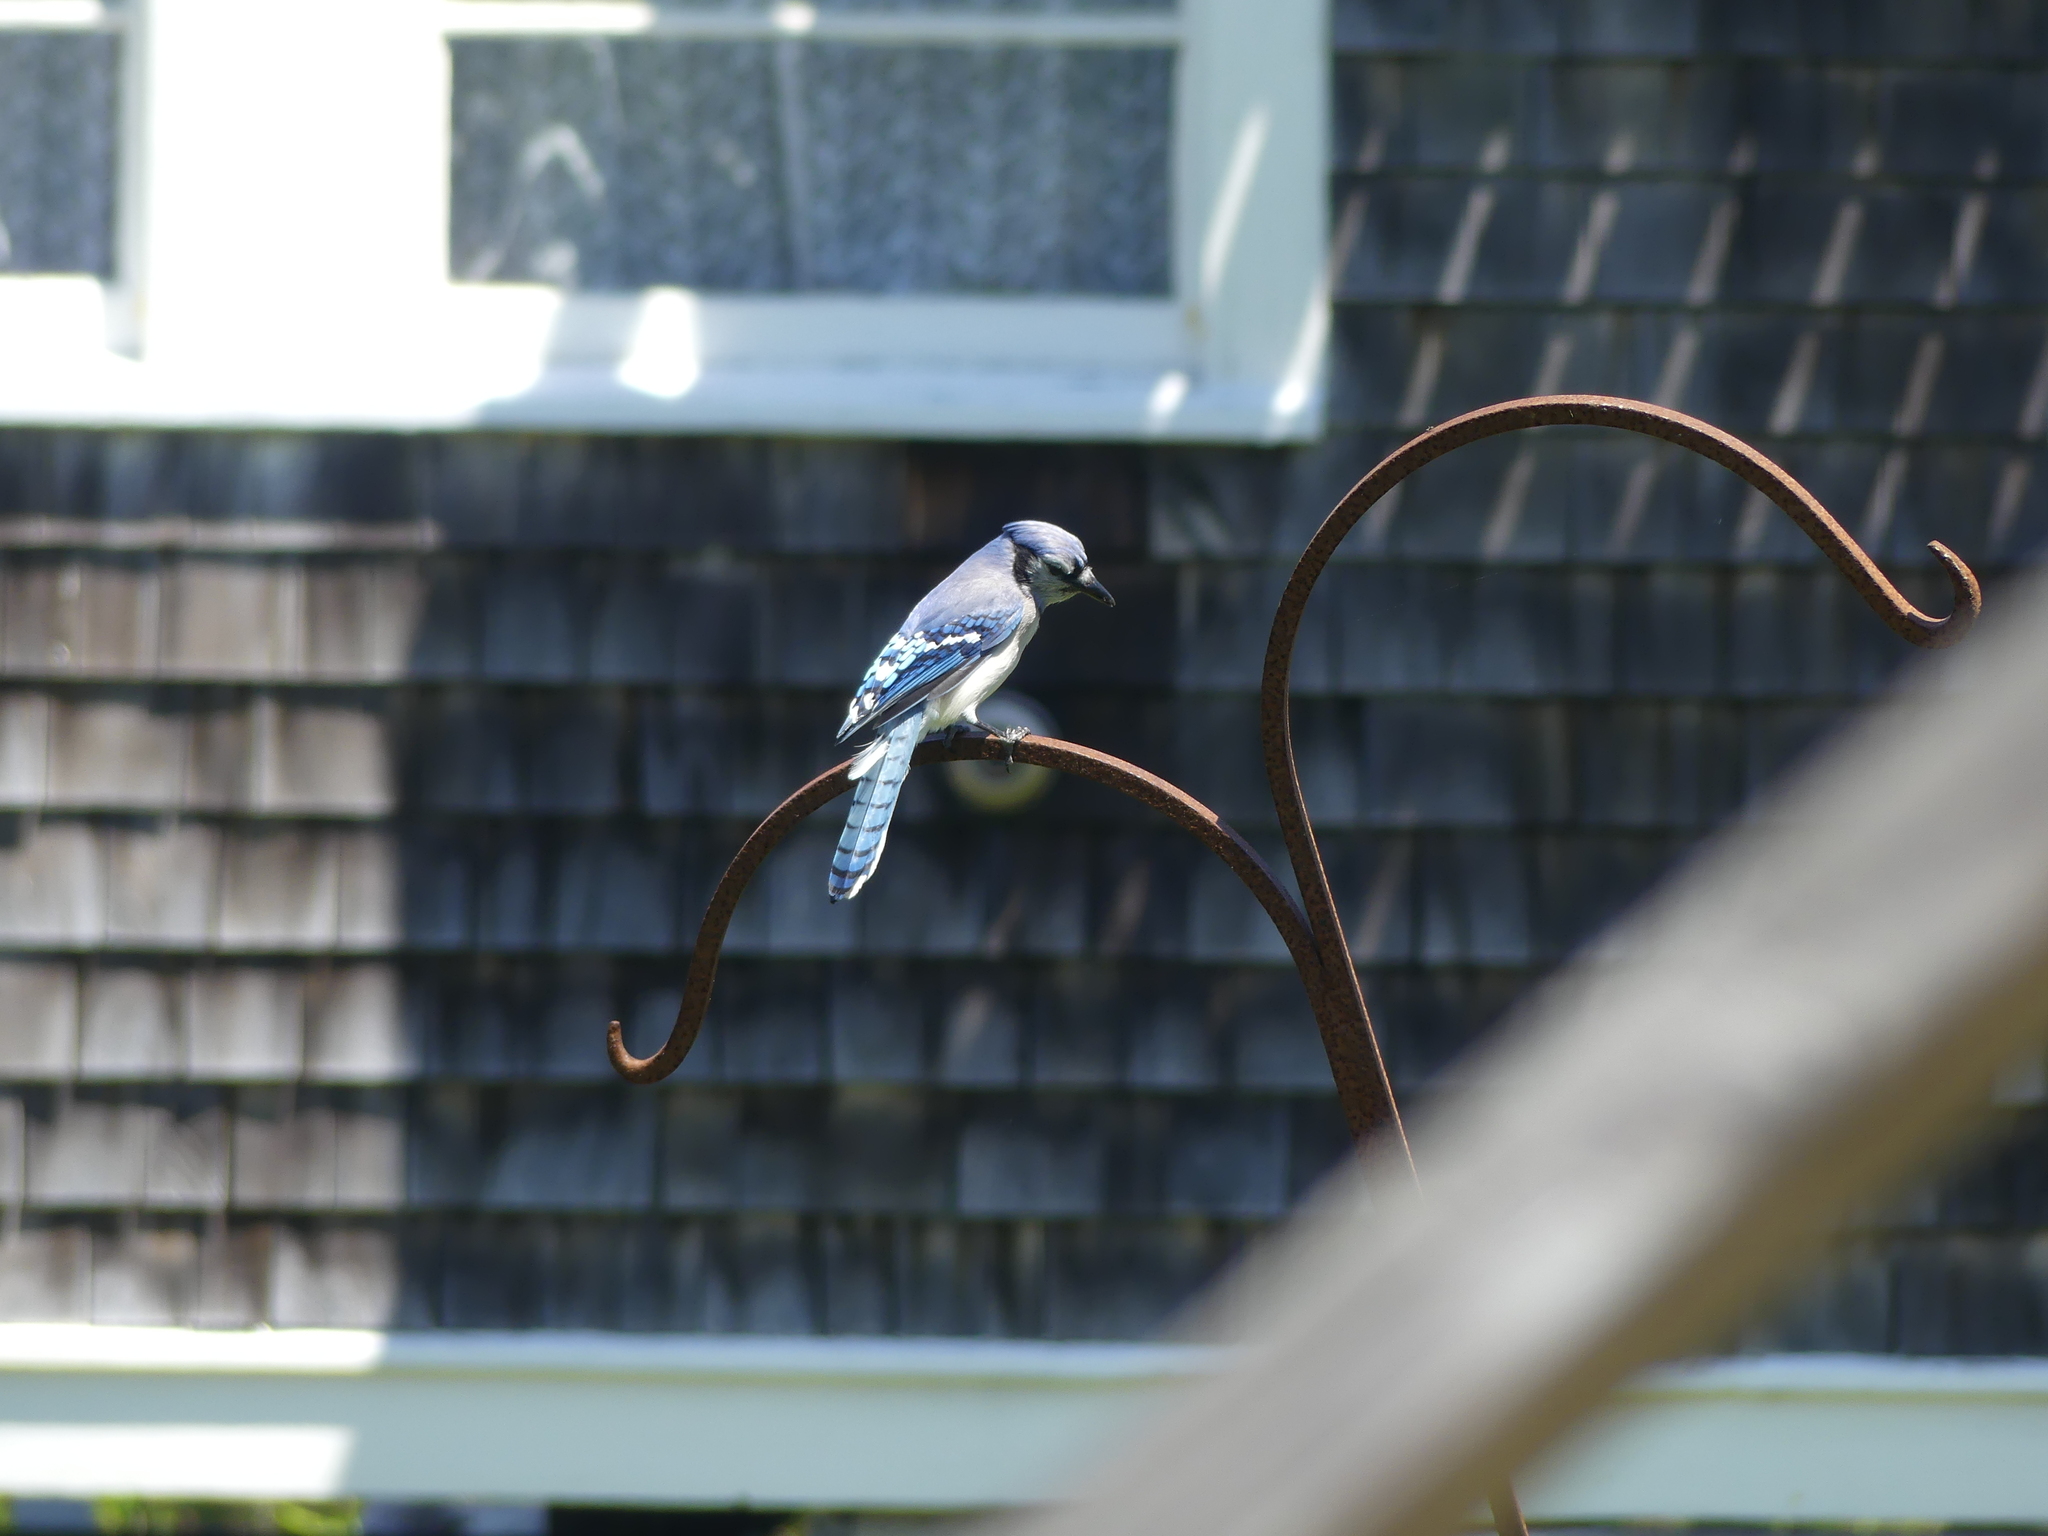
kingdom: Animalia
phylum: Chordata
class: Aves
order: Passeriformes
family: Corvidae
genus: Cyanocitta
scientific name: Cyanocitta cristata
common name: Blue jay
